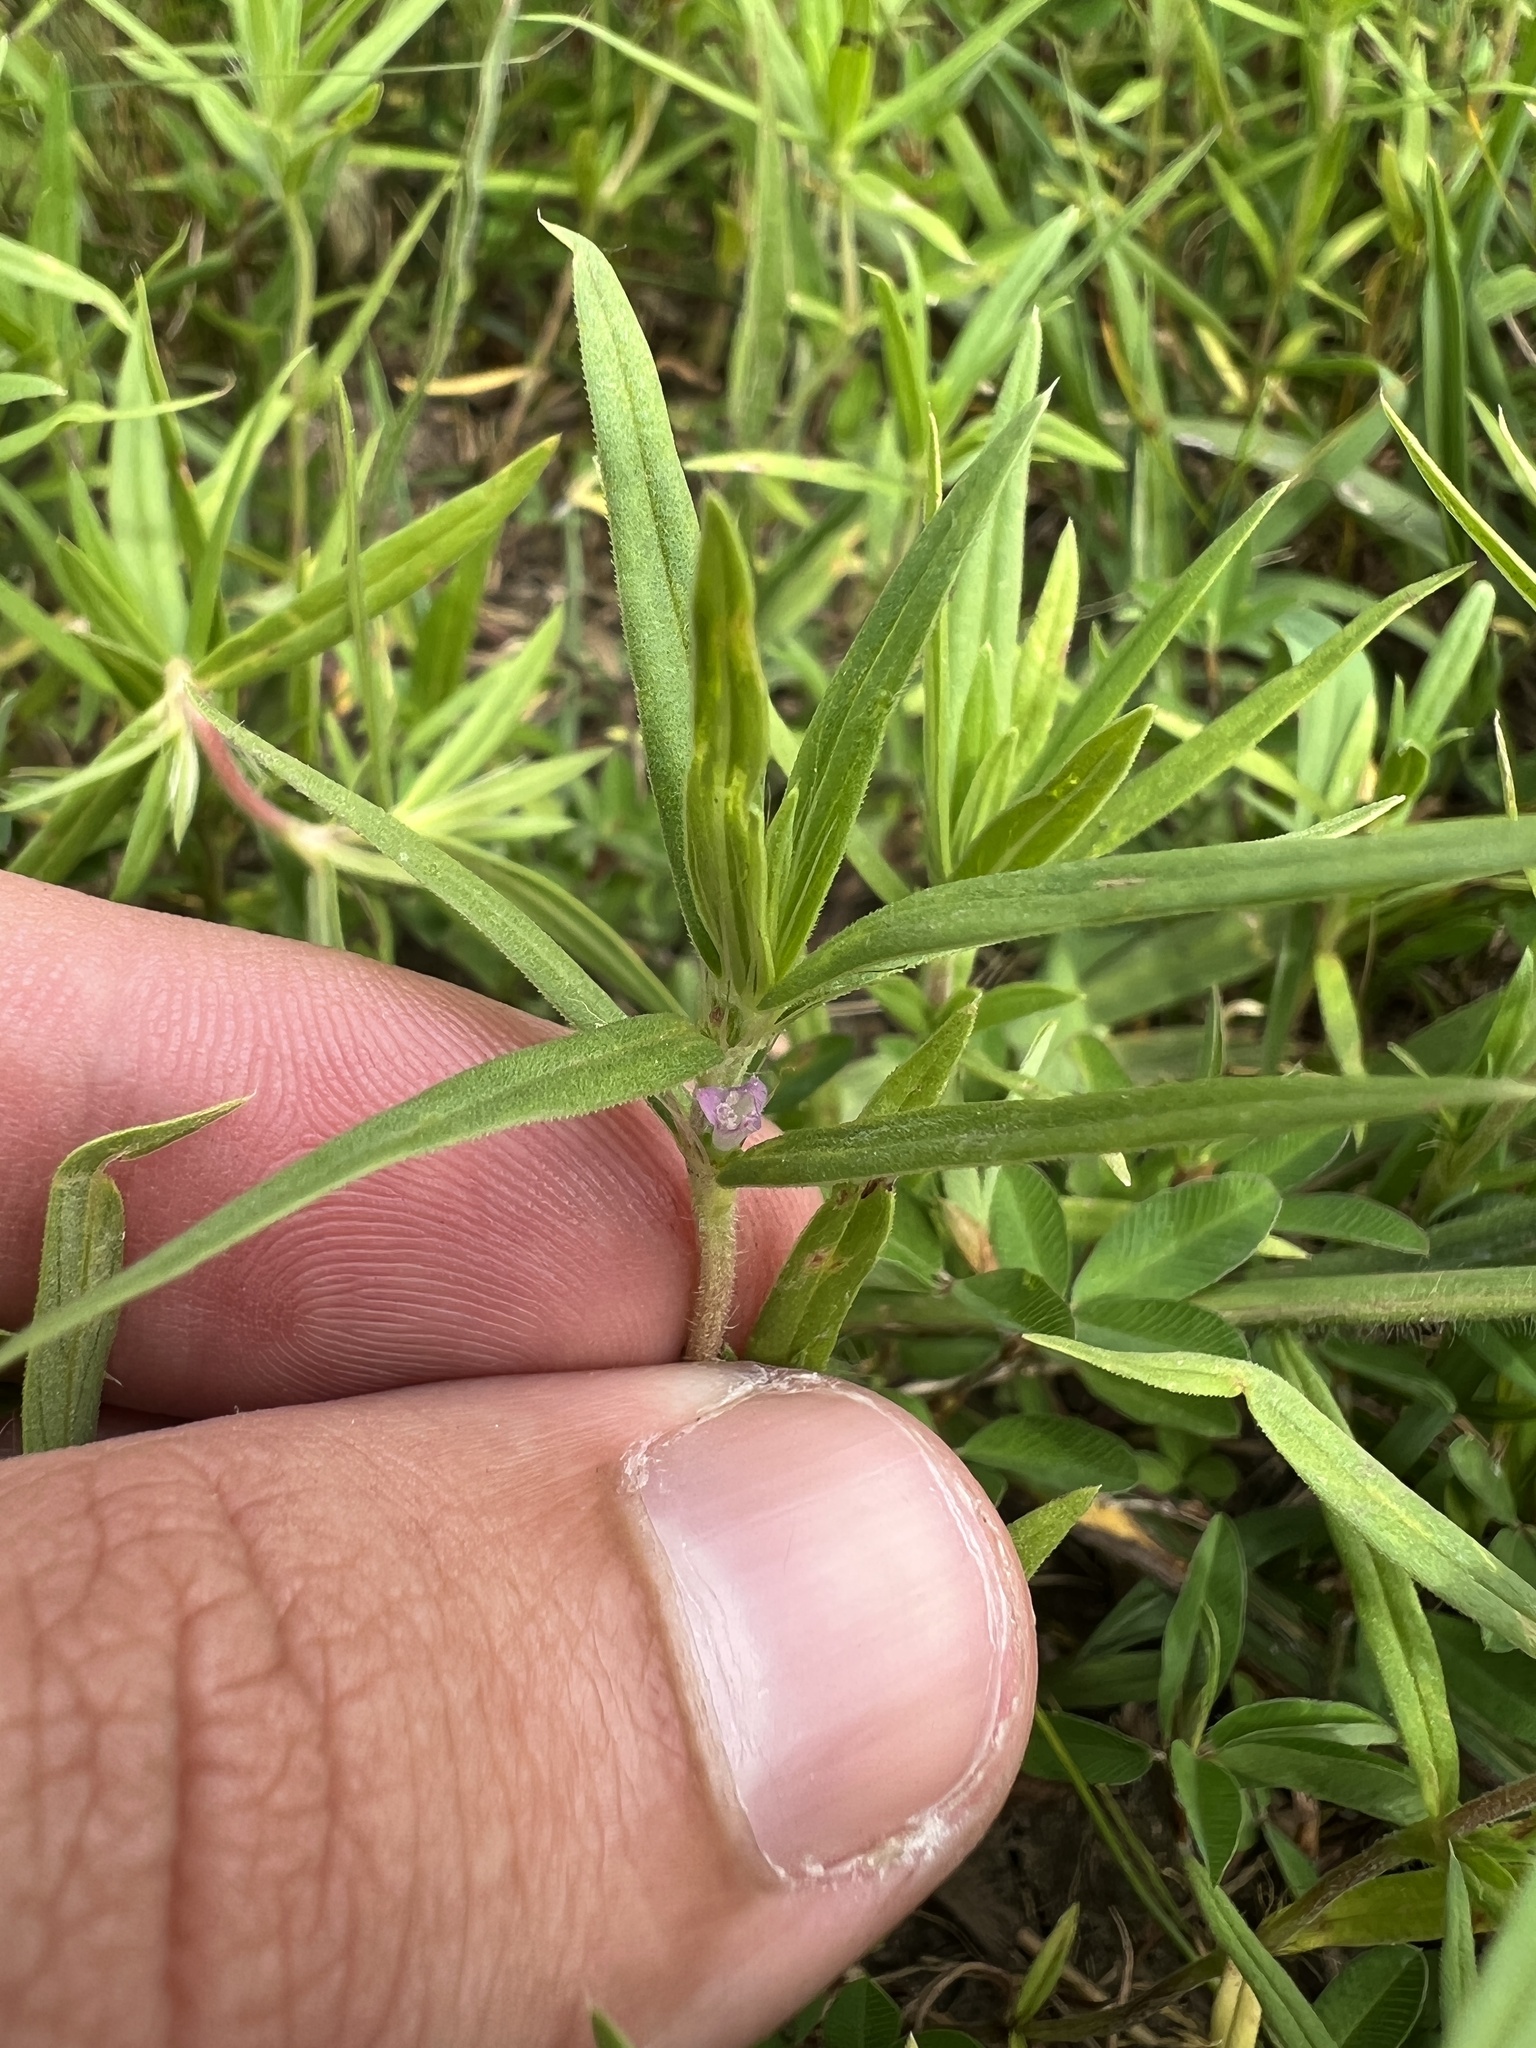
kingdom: Plantae
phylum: Tracheophyta
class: Magnoliopsida
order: Gentianales
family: Rubiaceae
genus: Hexasepalum
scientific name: Hexasepalum teres
